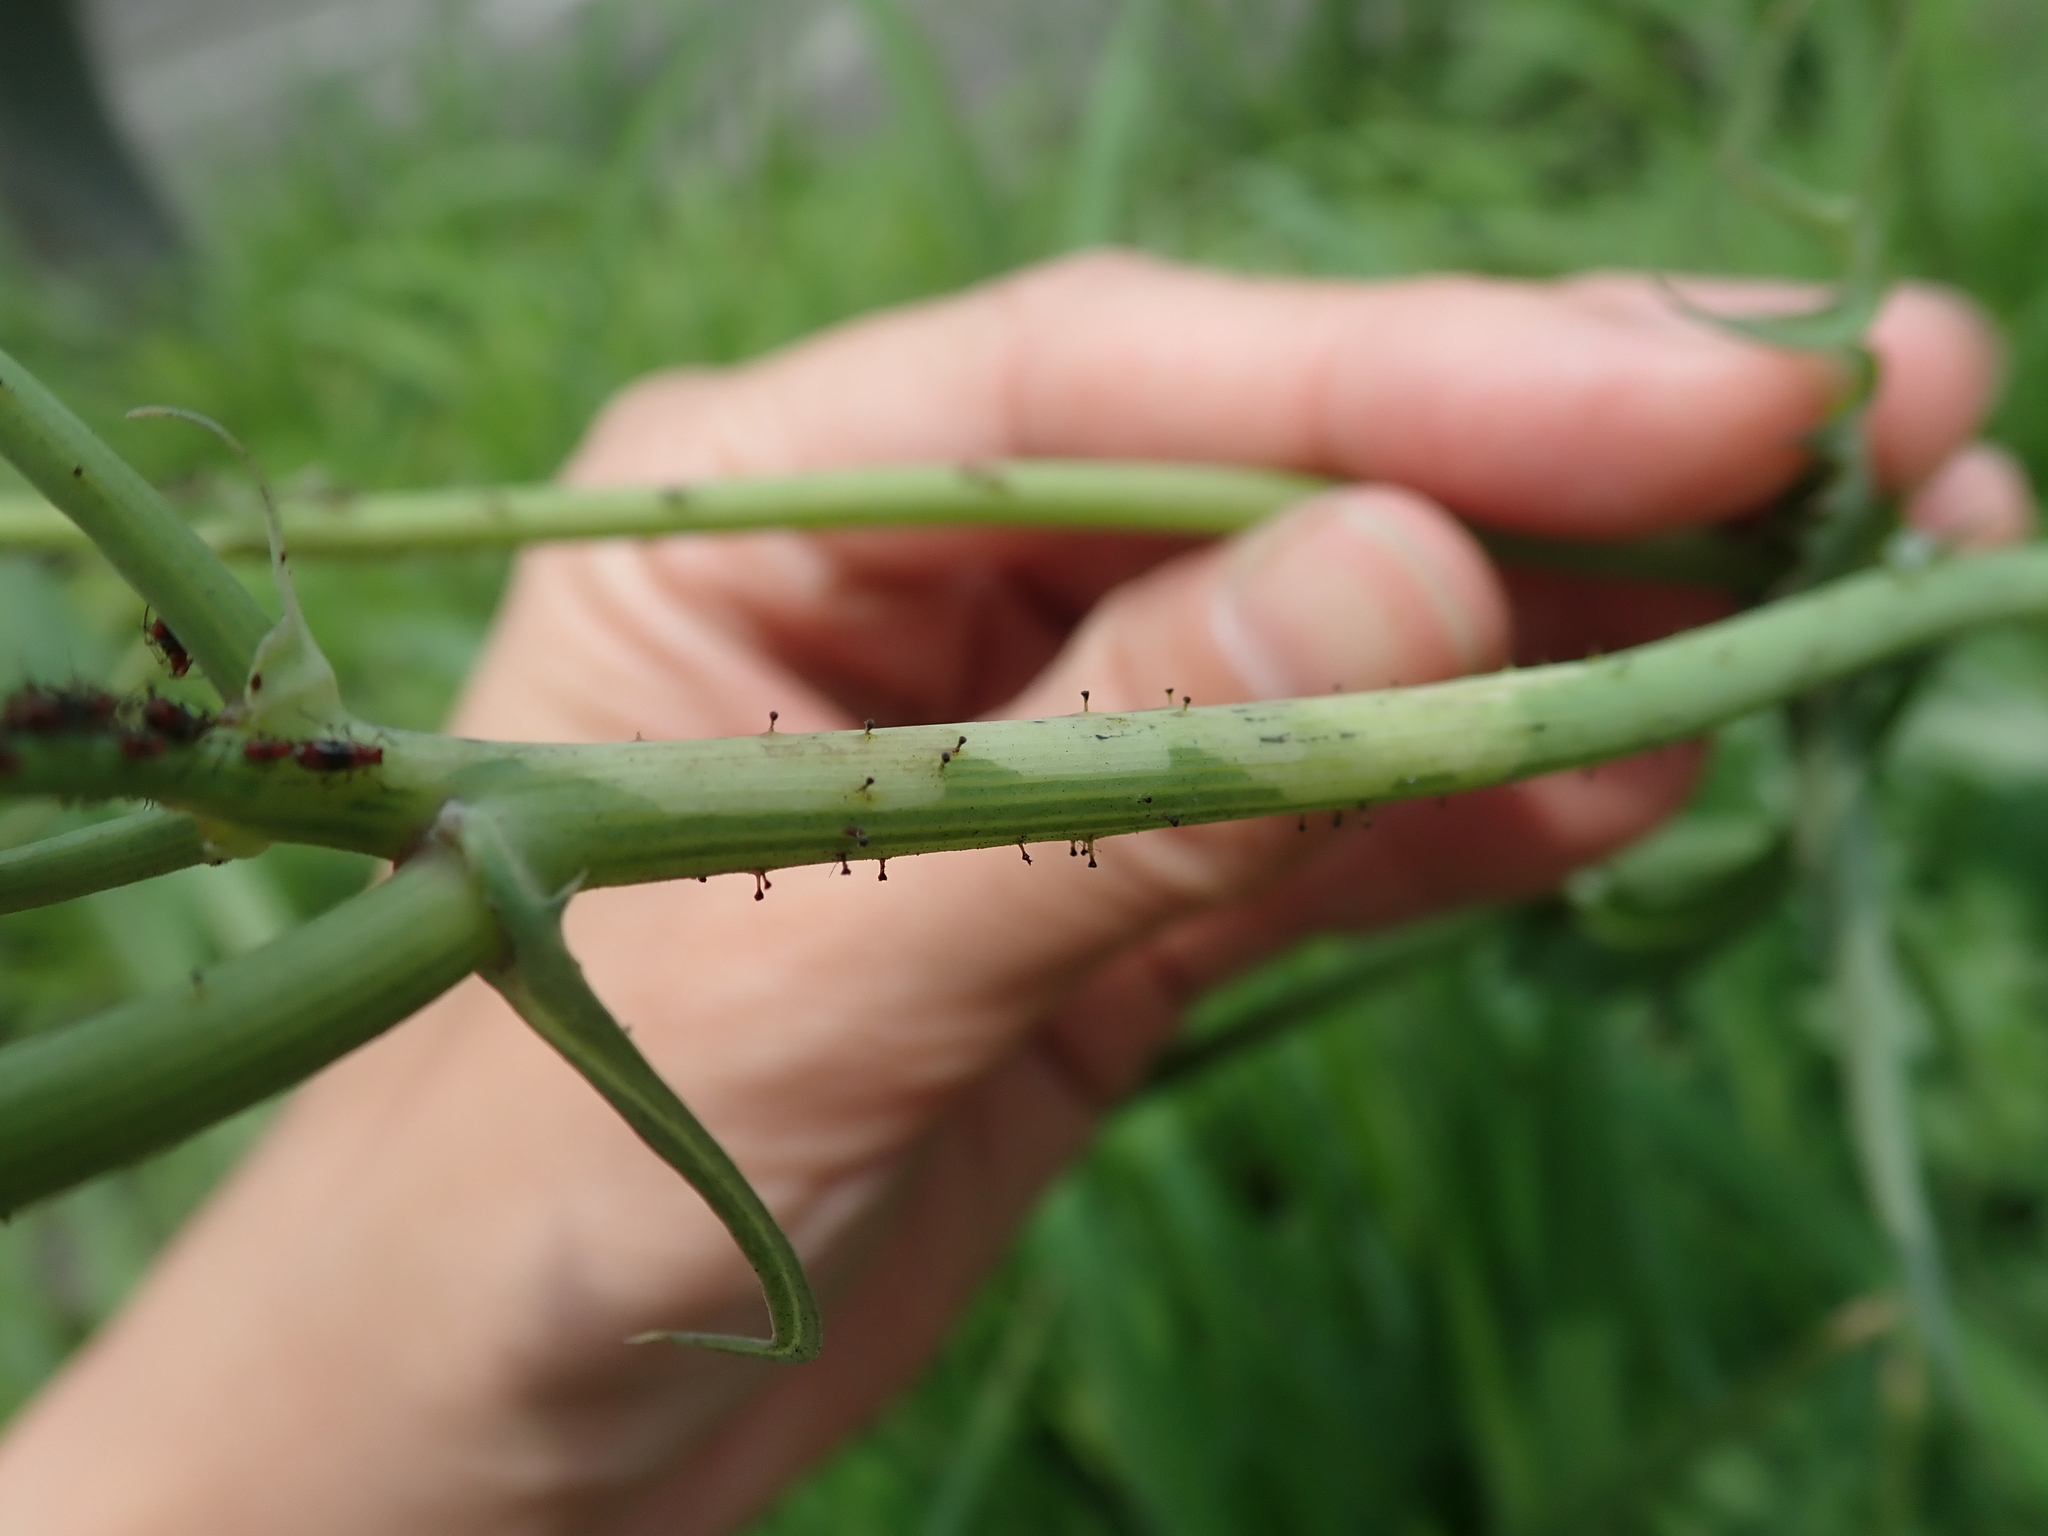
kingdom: Plantae
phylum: Tracheophyta
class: Magnoliopsida
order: Asterales
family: Asteraceae
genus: Sonchus
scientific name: Sonchus oleraceus
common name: Common sowthistle
